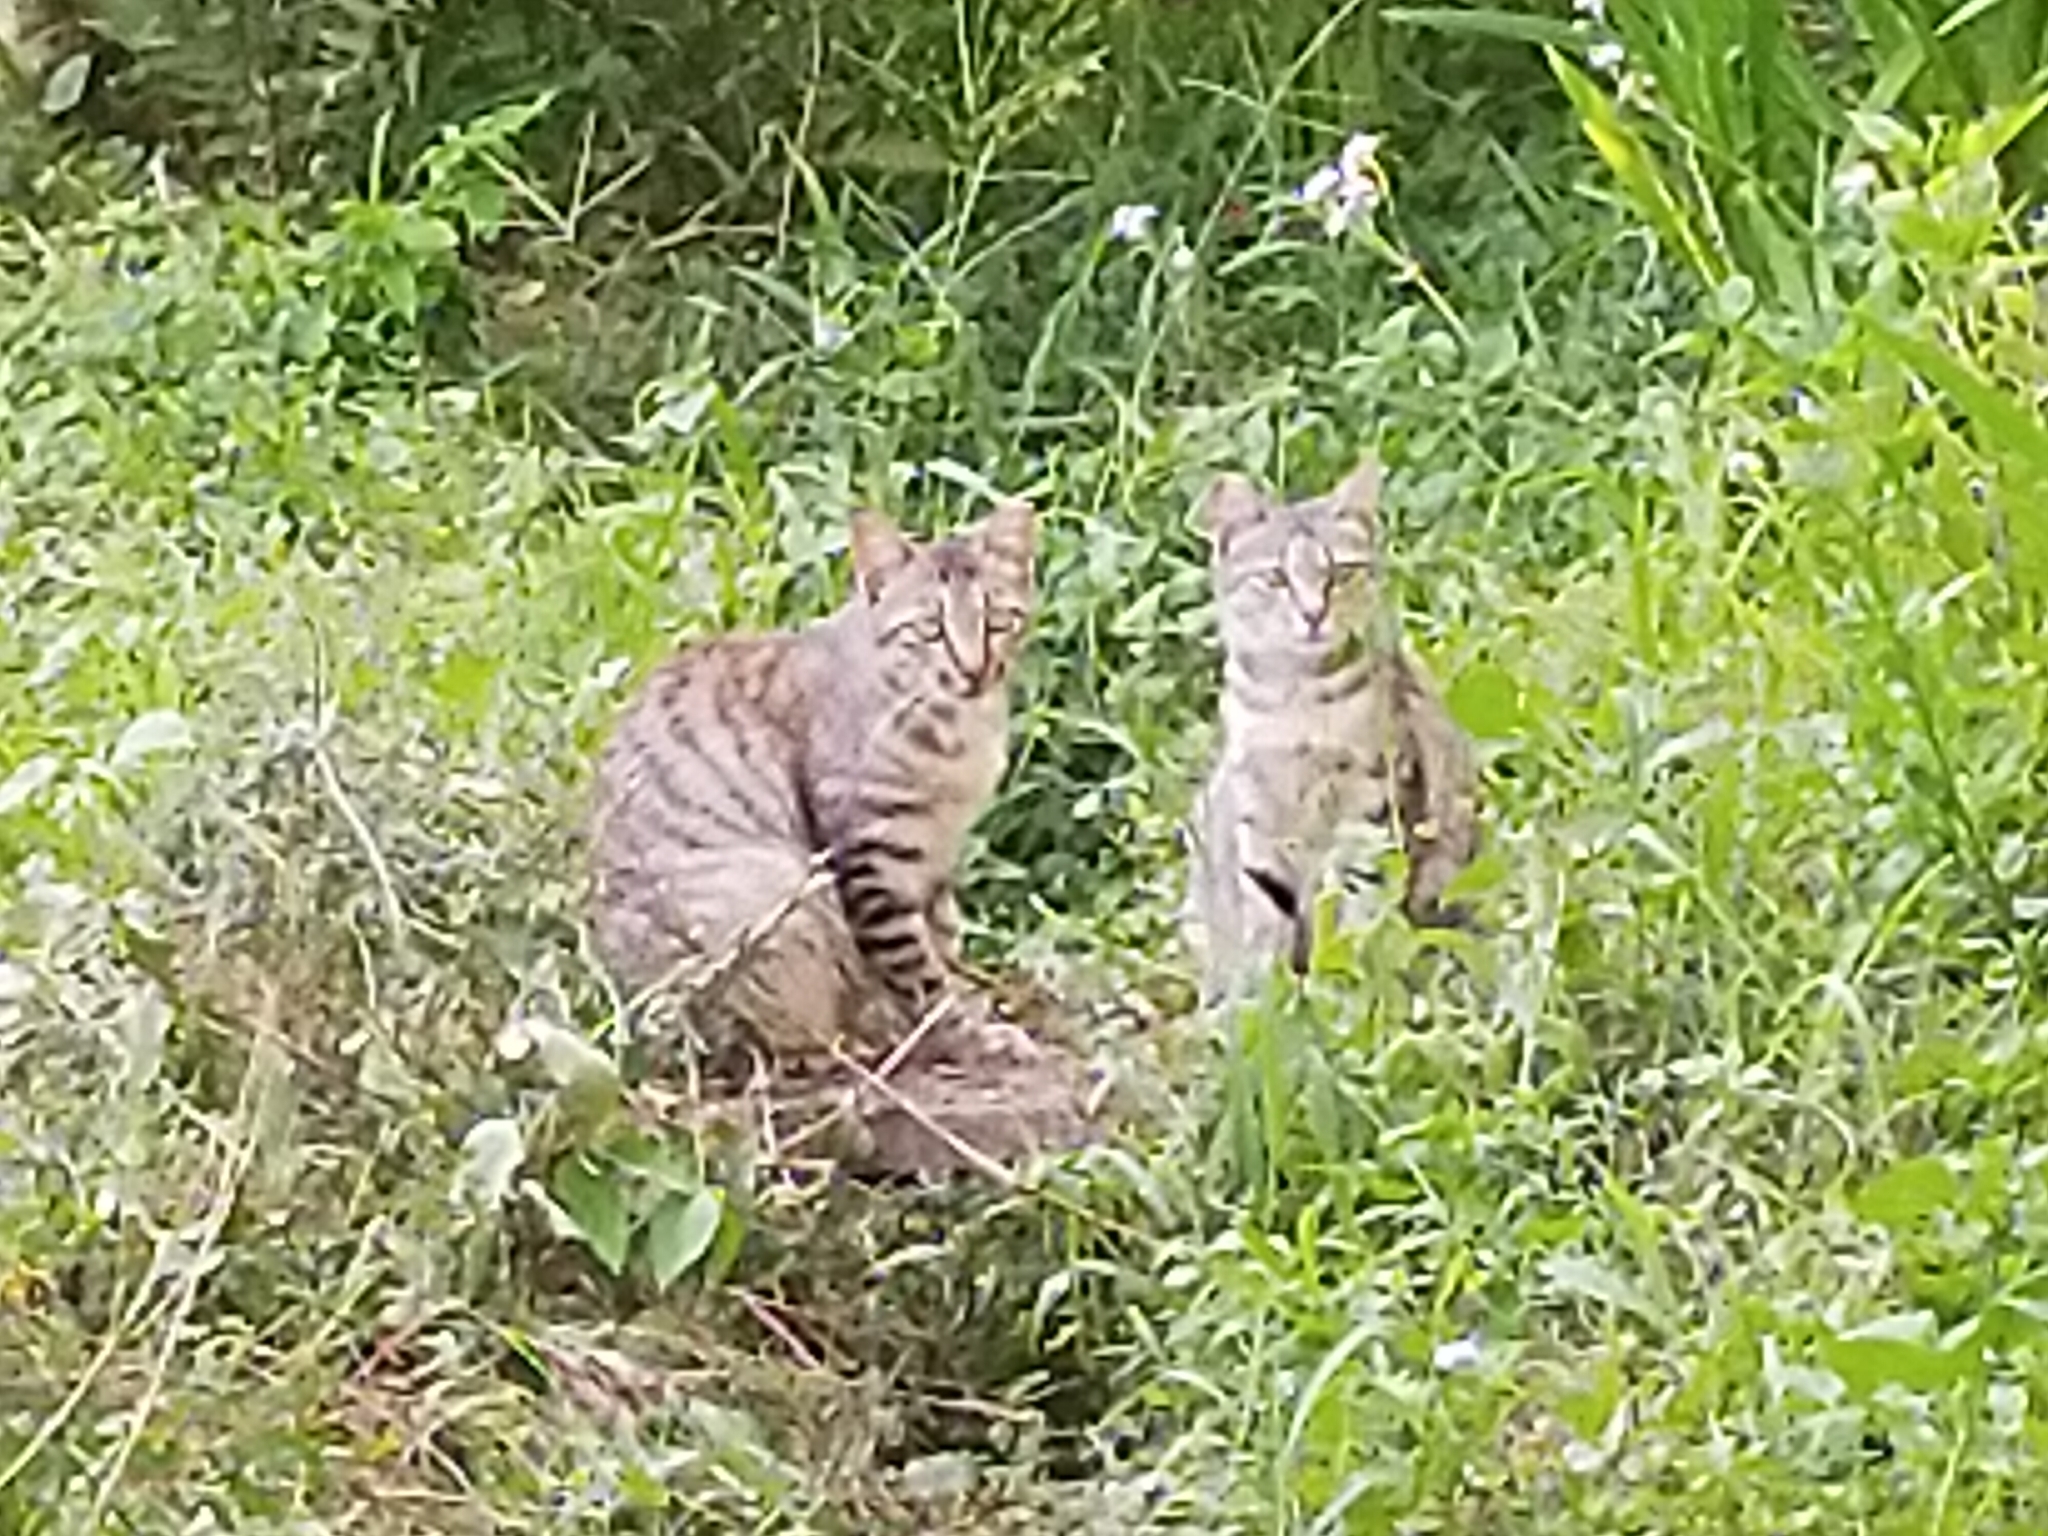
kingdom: Animalia
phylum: Chordata
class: Mammalia
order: Carnivora
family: Felidae
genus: Felis
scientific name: Felis catus
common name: Domestic cat
